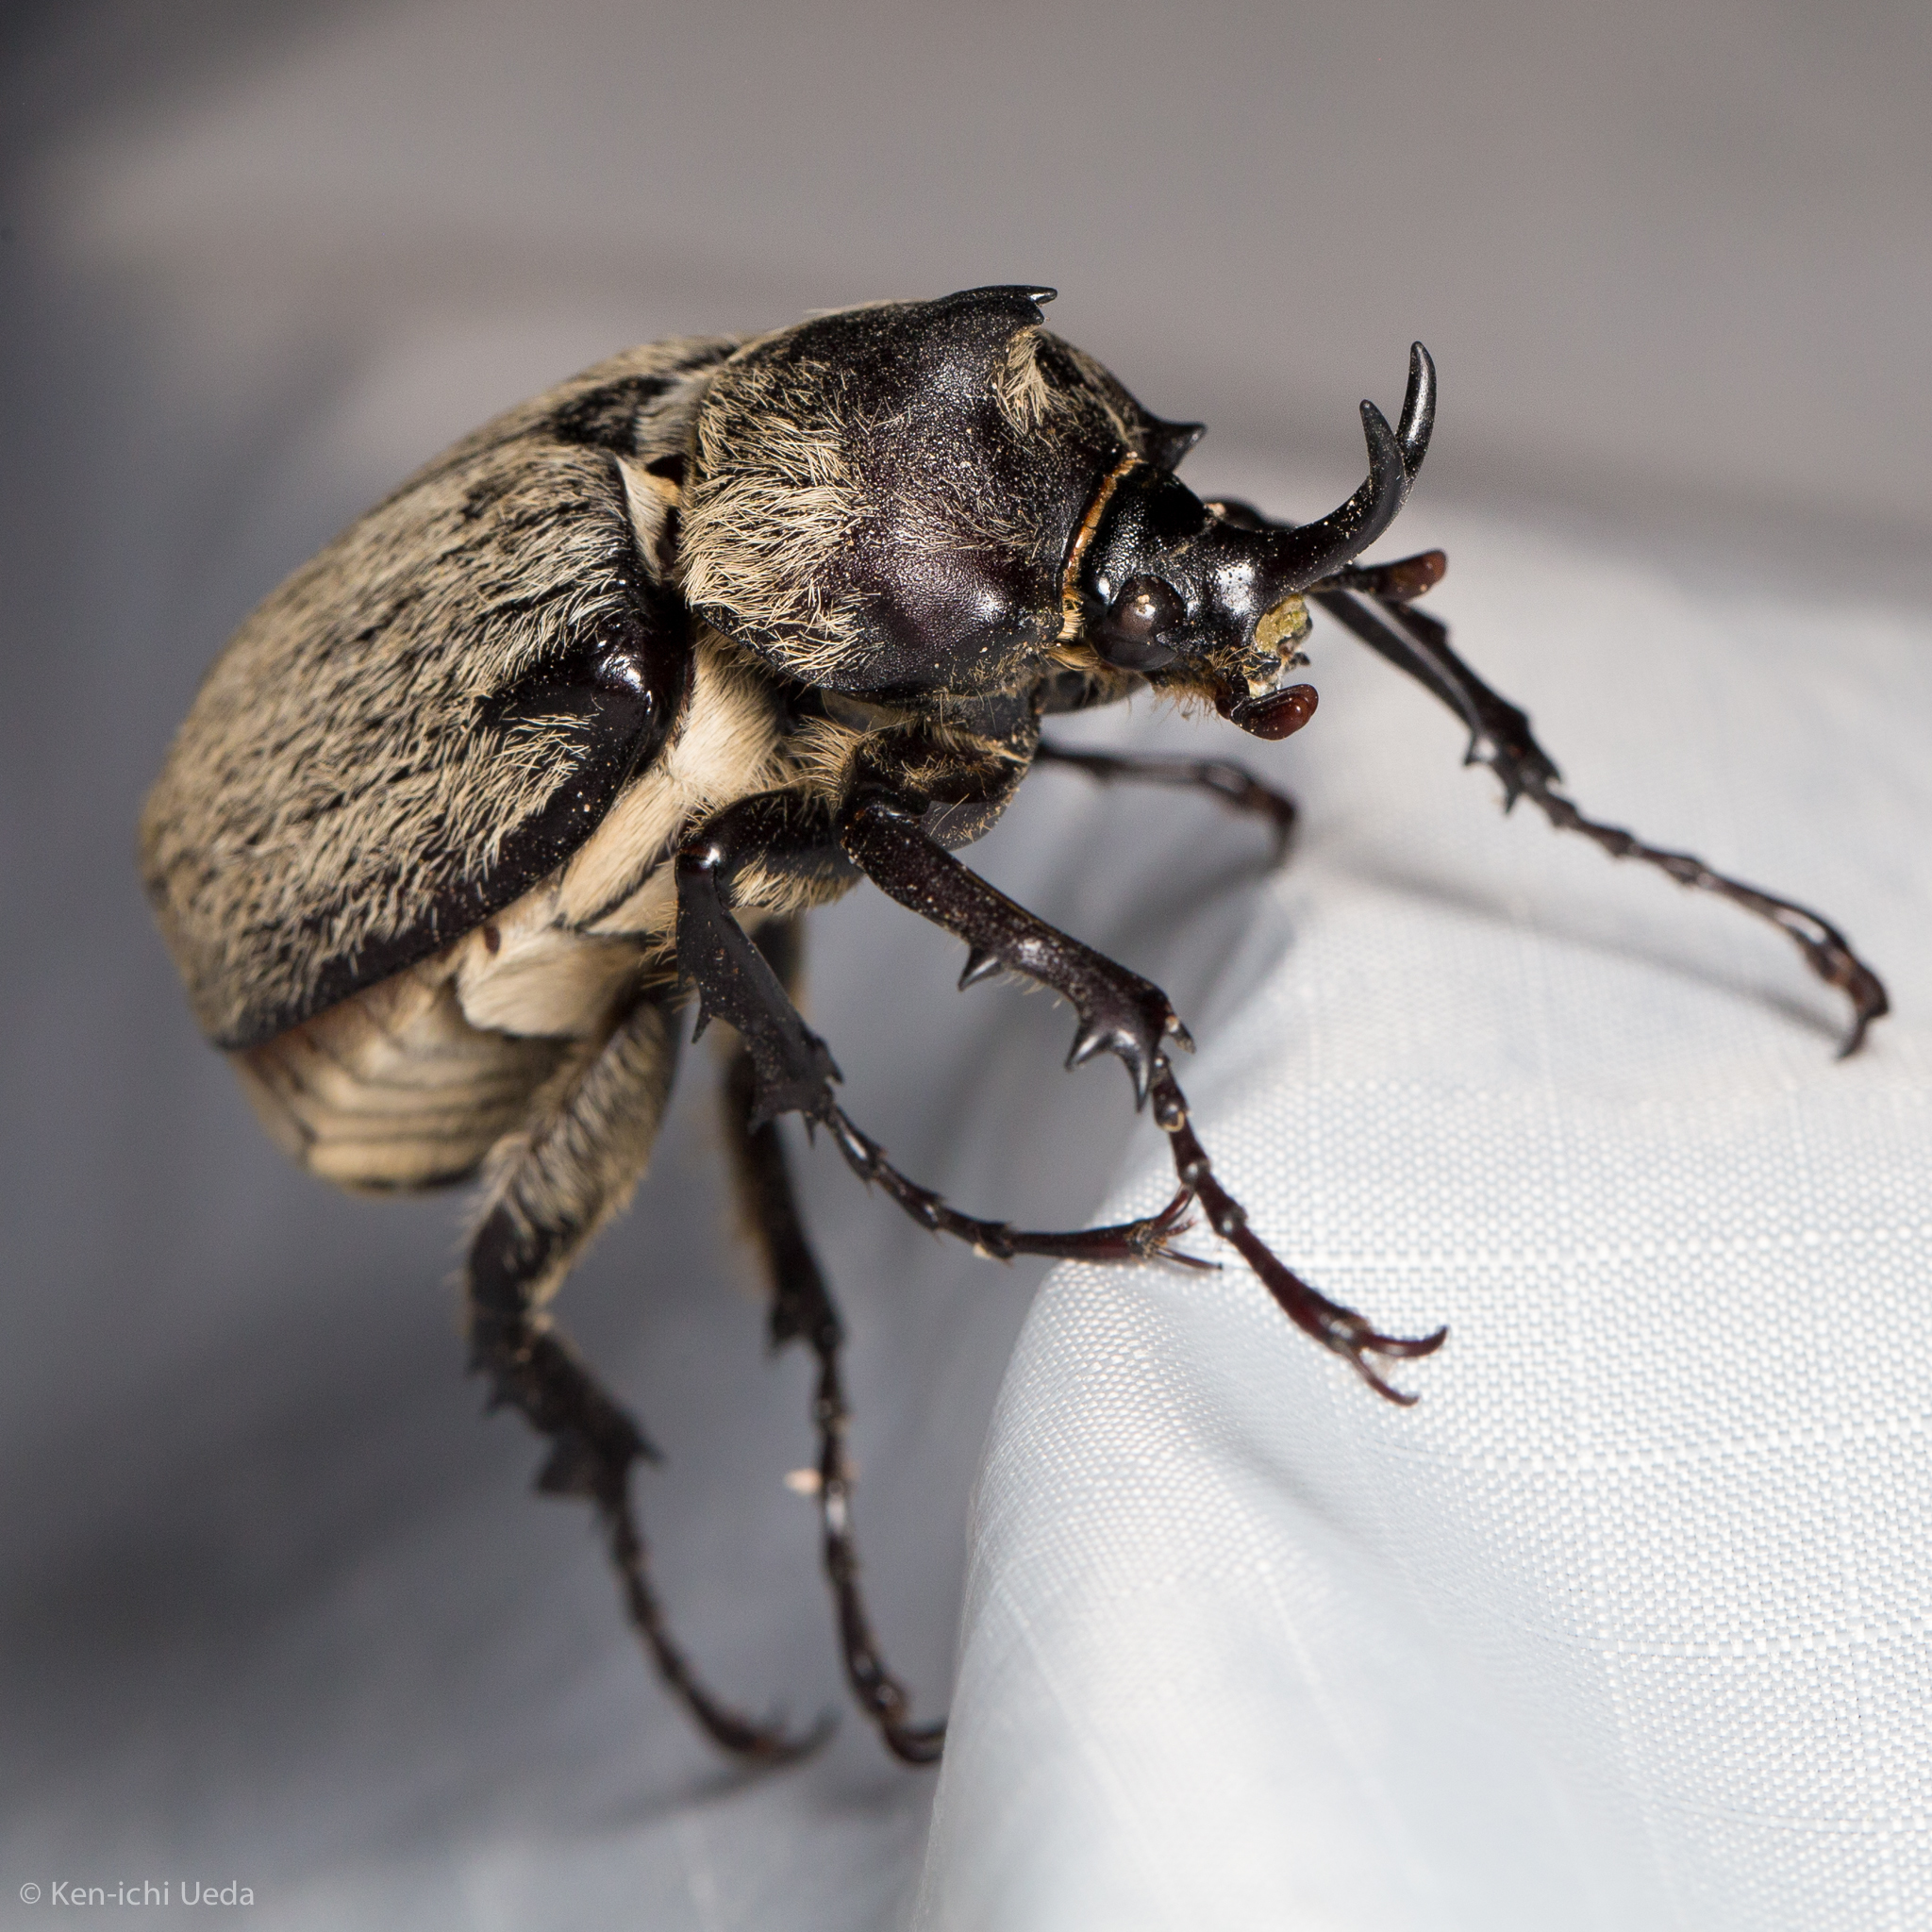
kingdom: Animalia
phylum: Arthropoda
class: Insecta
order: Coleoptera
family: Scarabaeidae
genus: Megasoma
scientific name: Megasoma thersites
